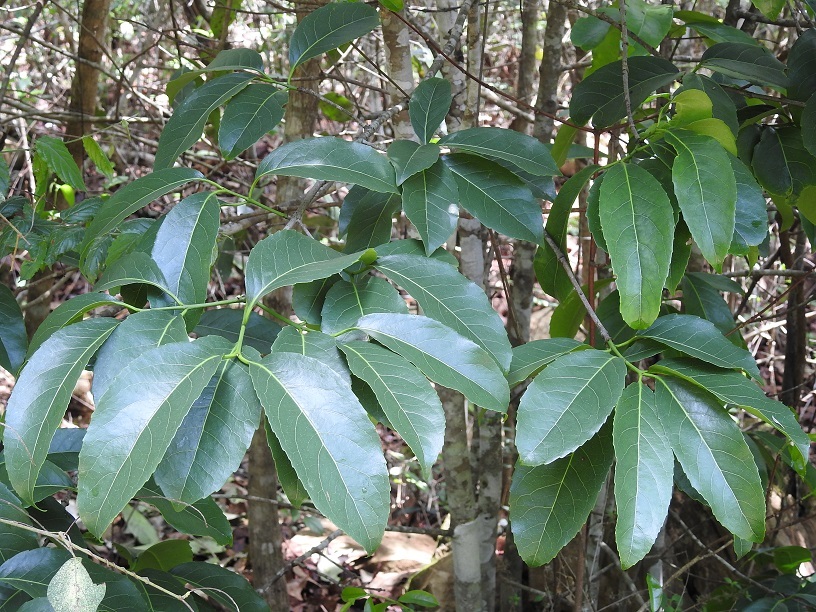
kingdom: Plantae
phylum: Tracheophyta
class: Magnoliopsida
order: Celastrales
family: Celastraceae
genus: Elaeodendron
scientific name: Elaeodendron xylocarpum
